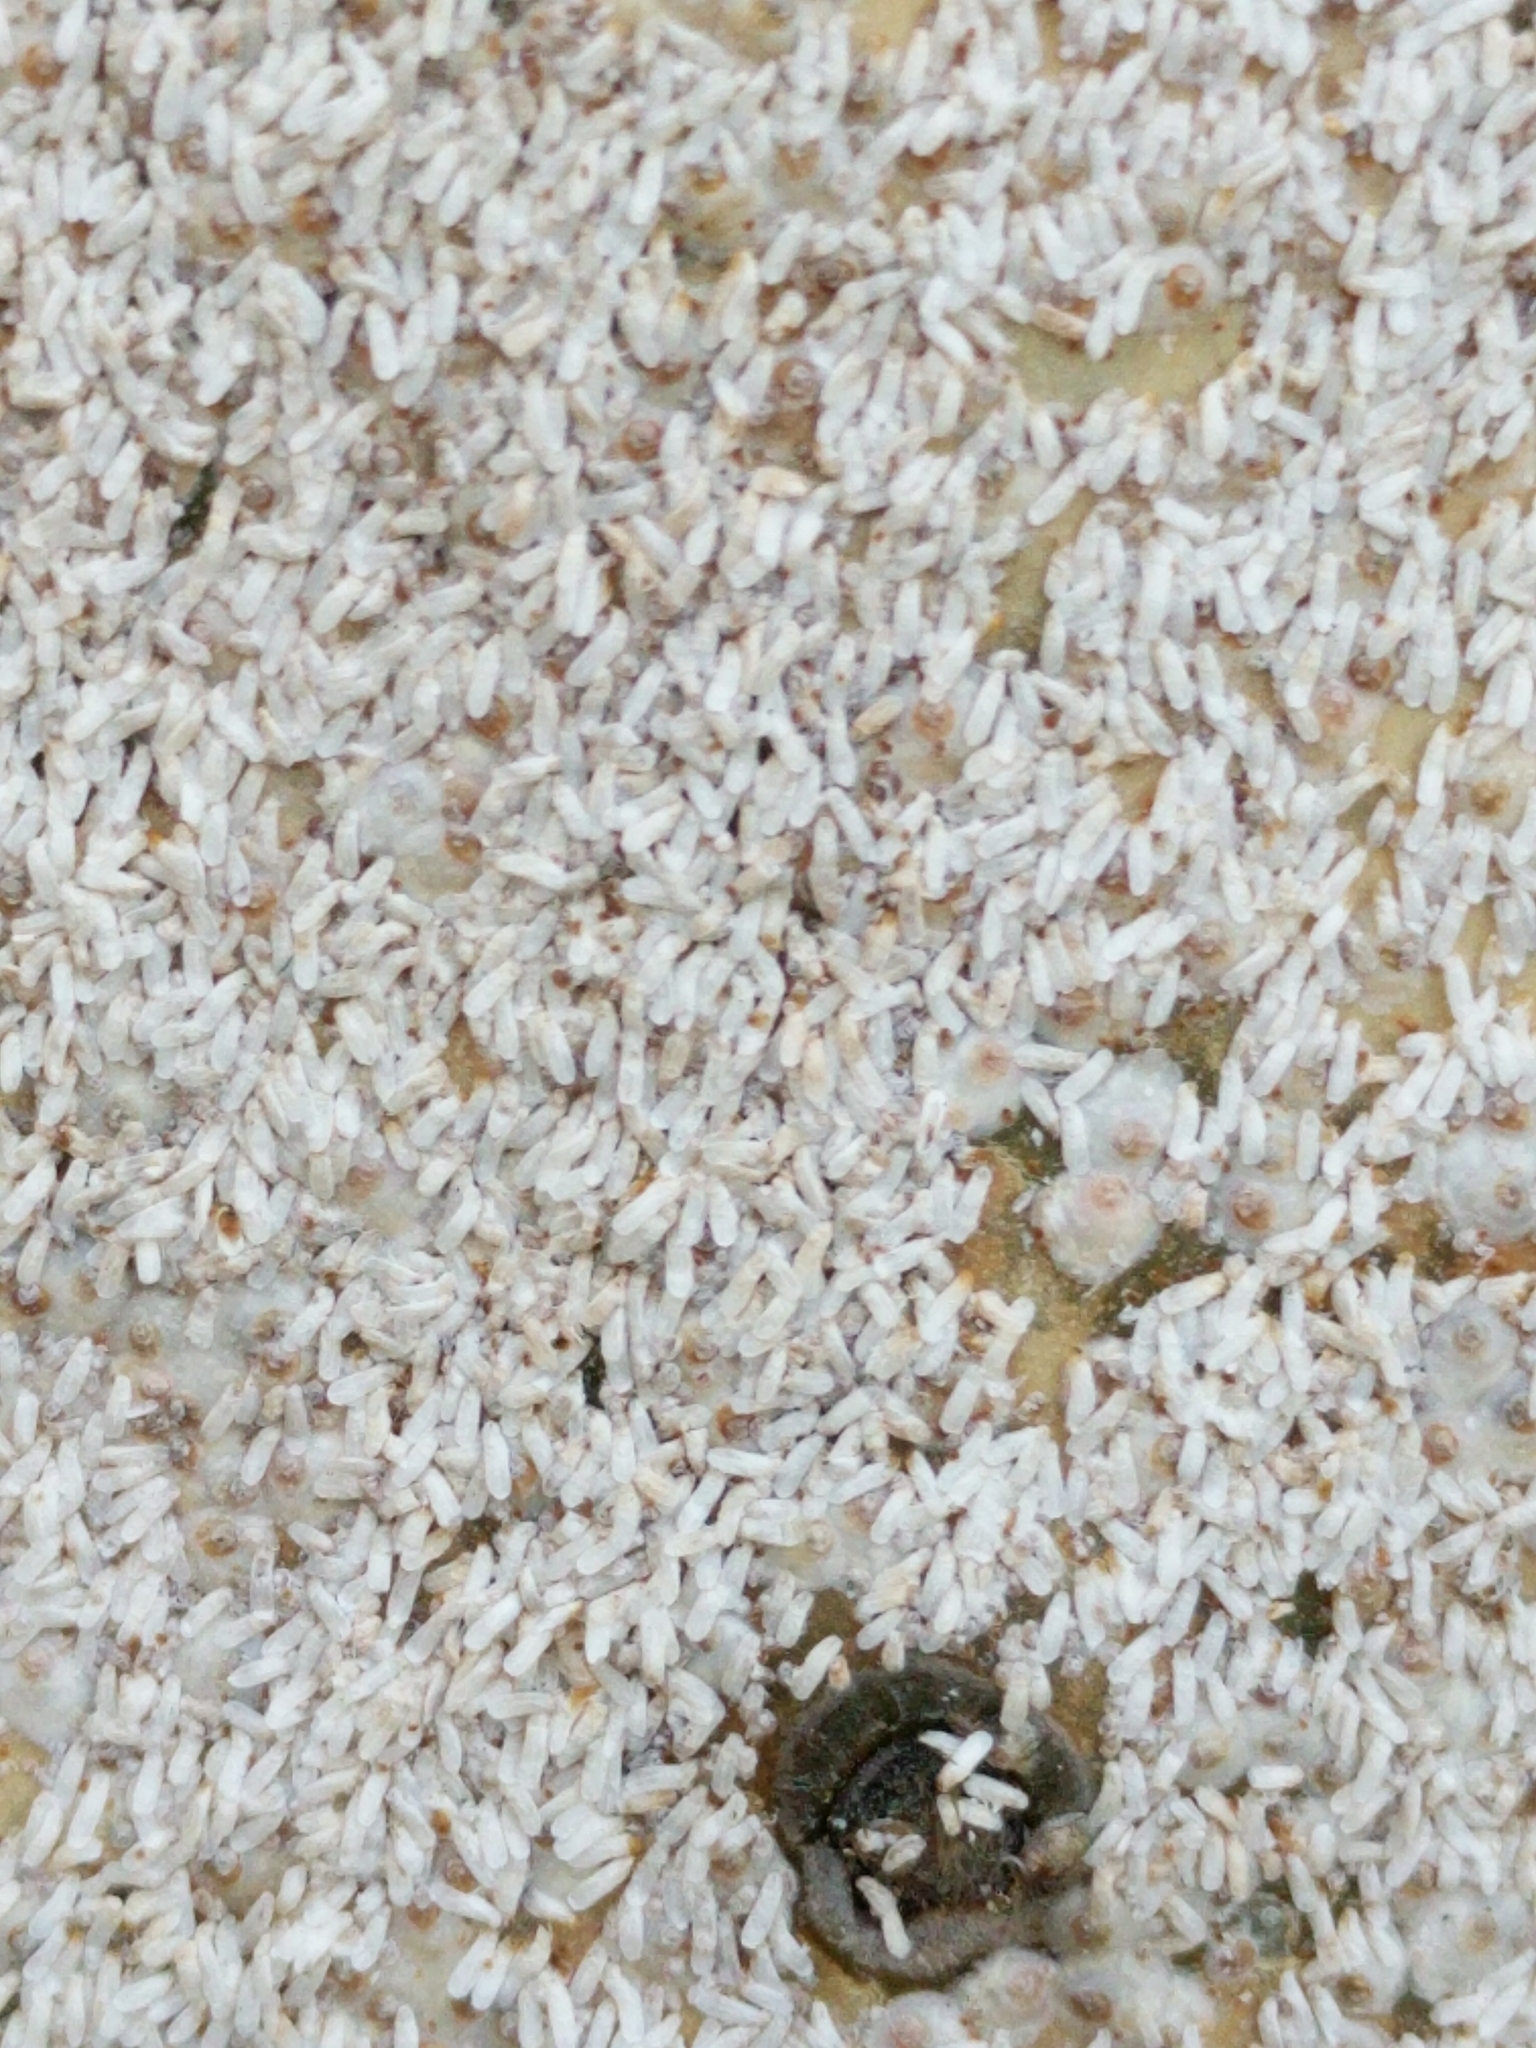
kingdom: Animalia
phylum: Arthropoda
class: Insecta
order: Hemiptera
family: Diaspididae
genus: Diaspis
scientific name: Diaspis echinocacti
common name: Cactus scale
